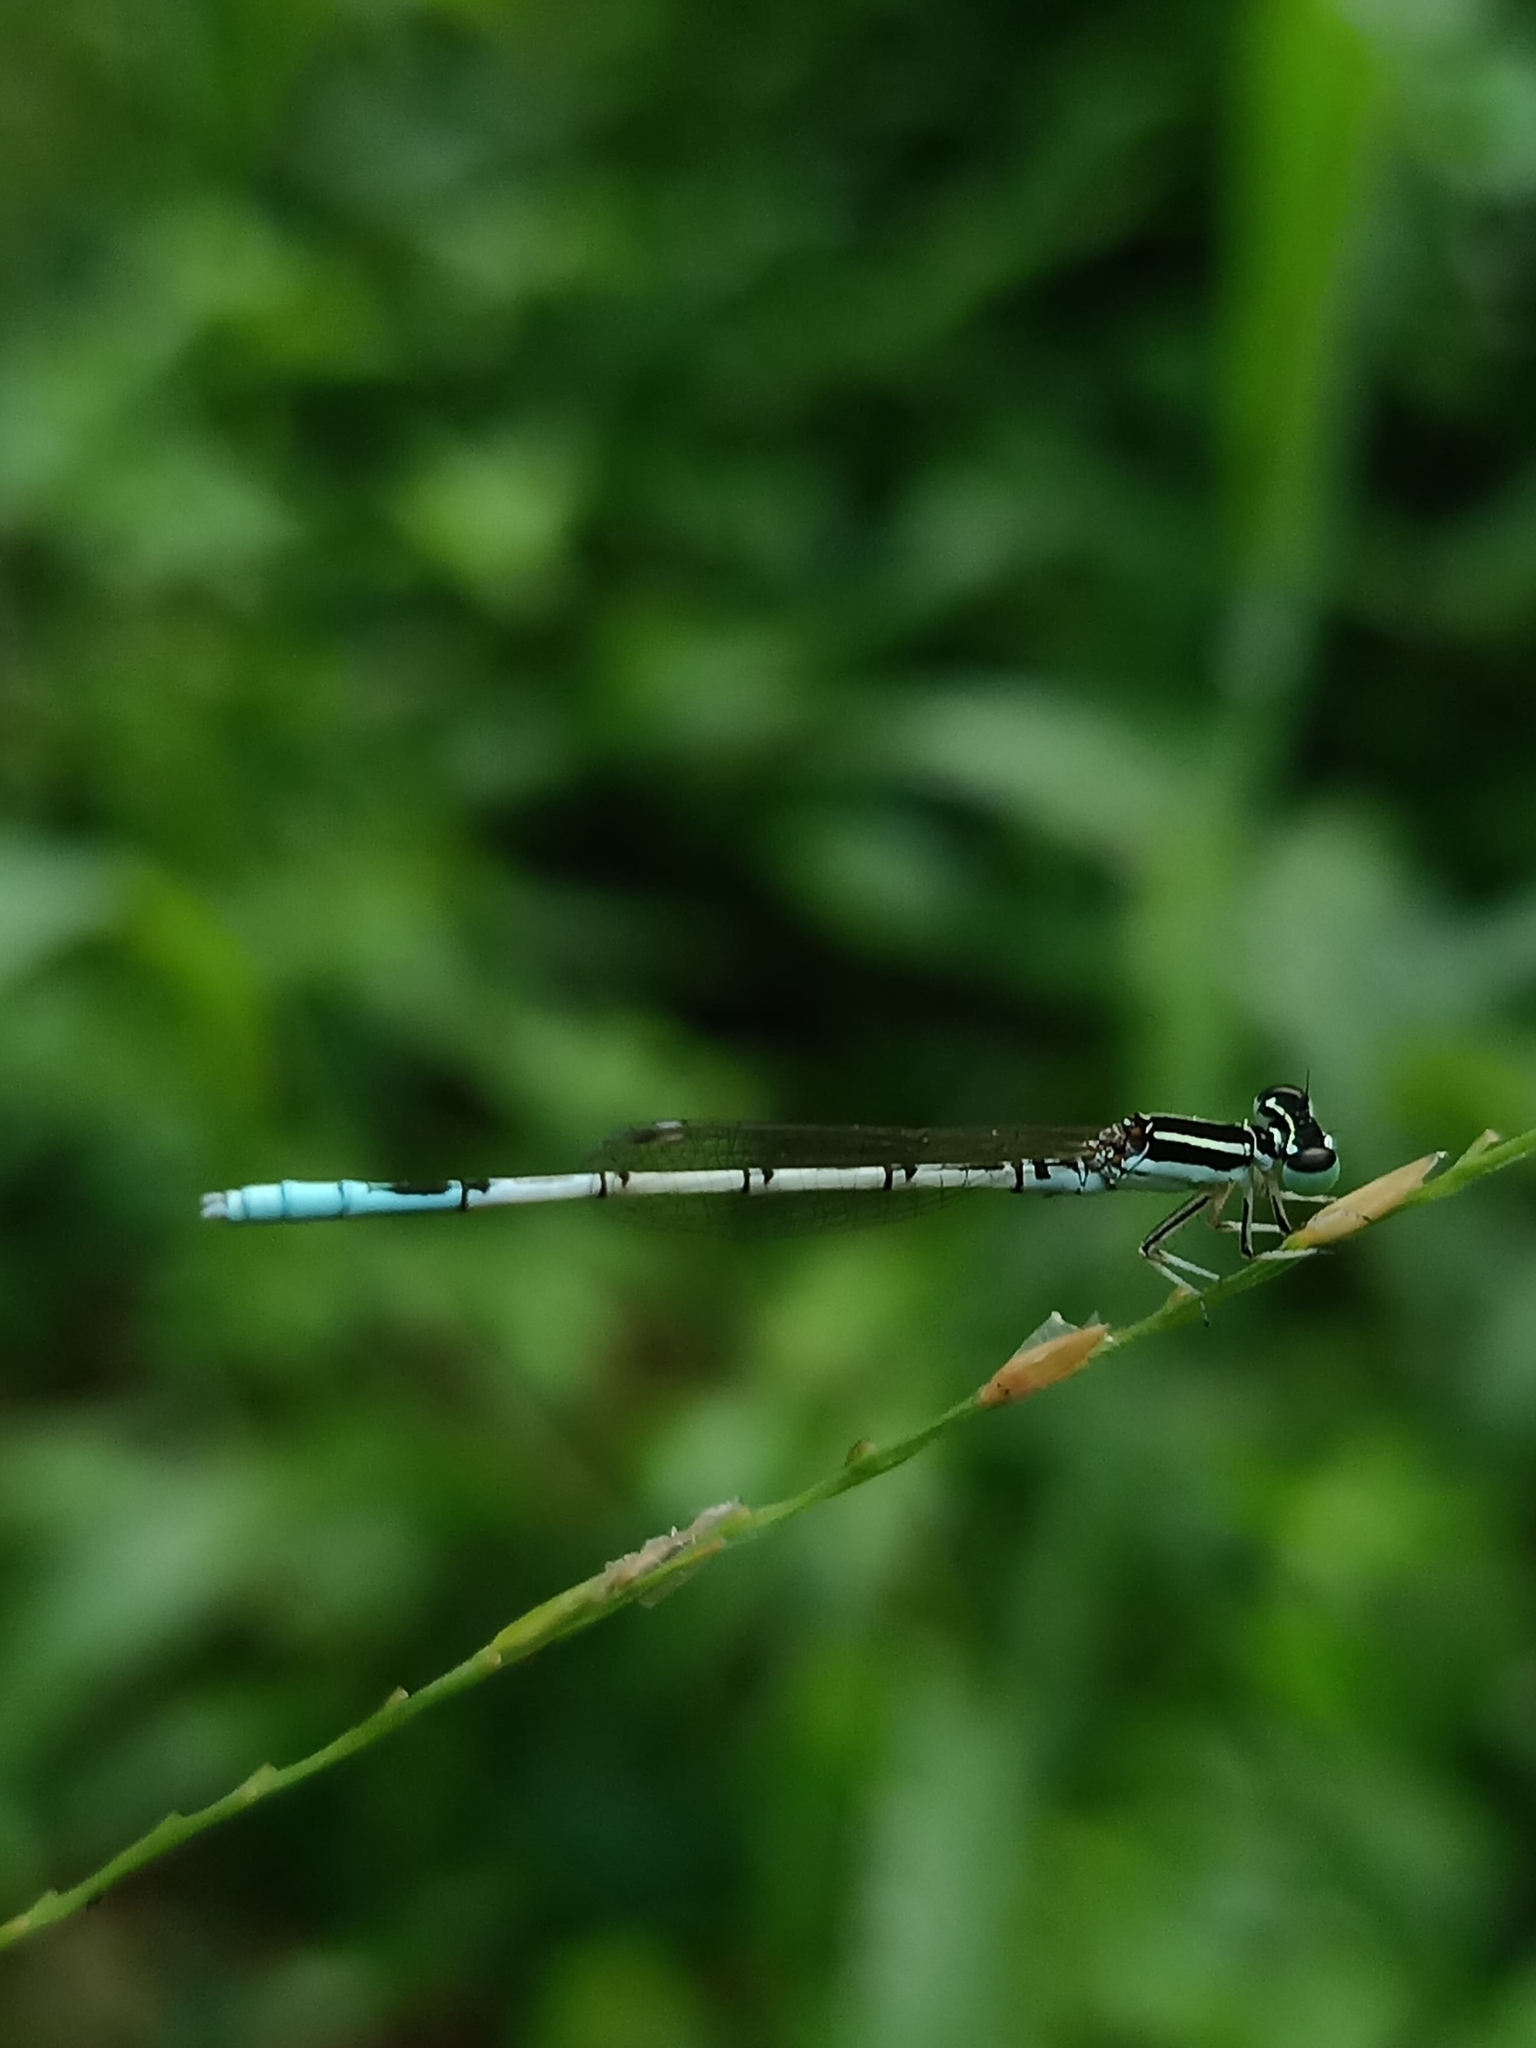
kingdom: Animalia
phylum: Arthropoda
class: Insecta
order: Odonata
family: Coenagrionidae
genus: Agriocnemis
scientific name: Agriocnemis pieris
